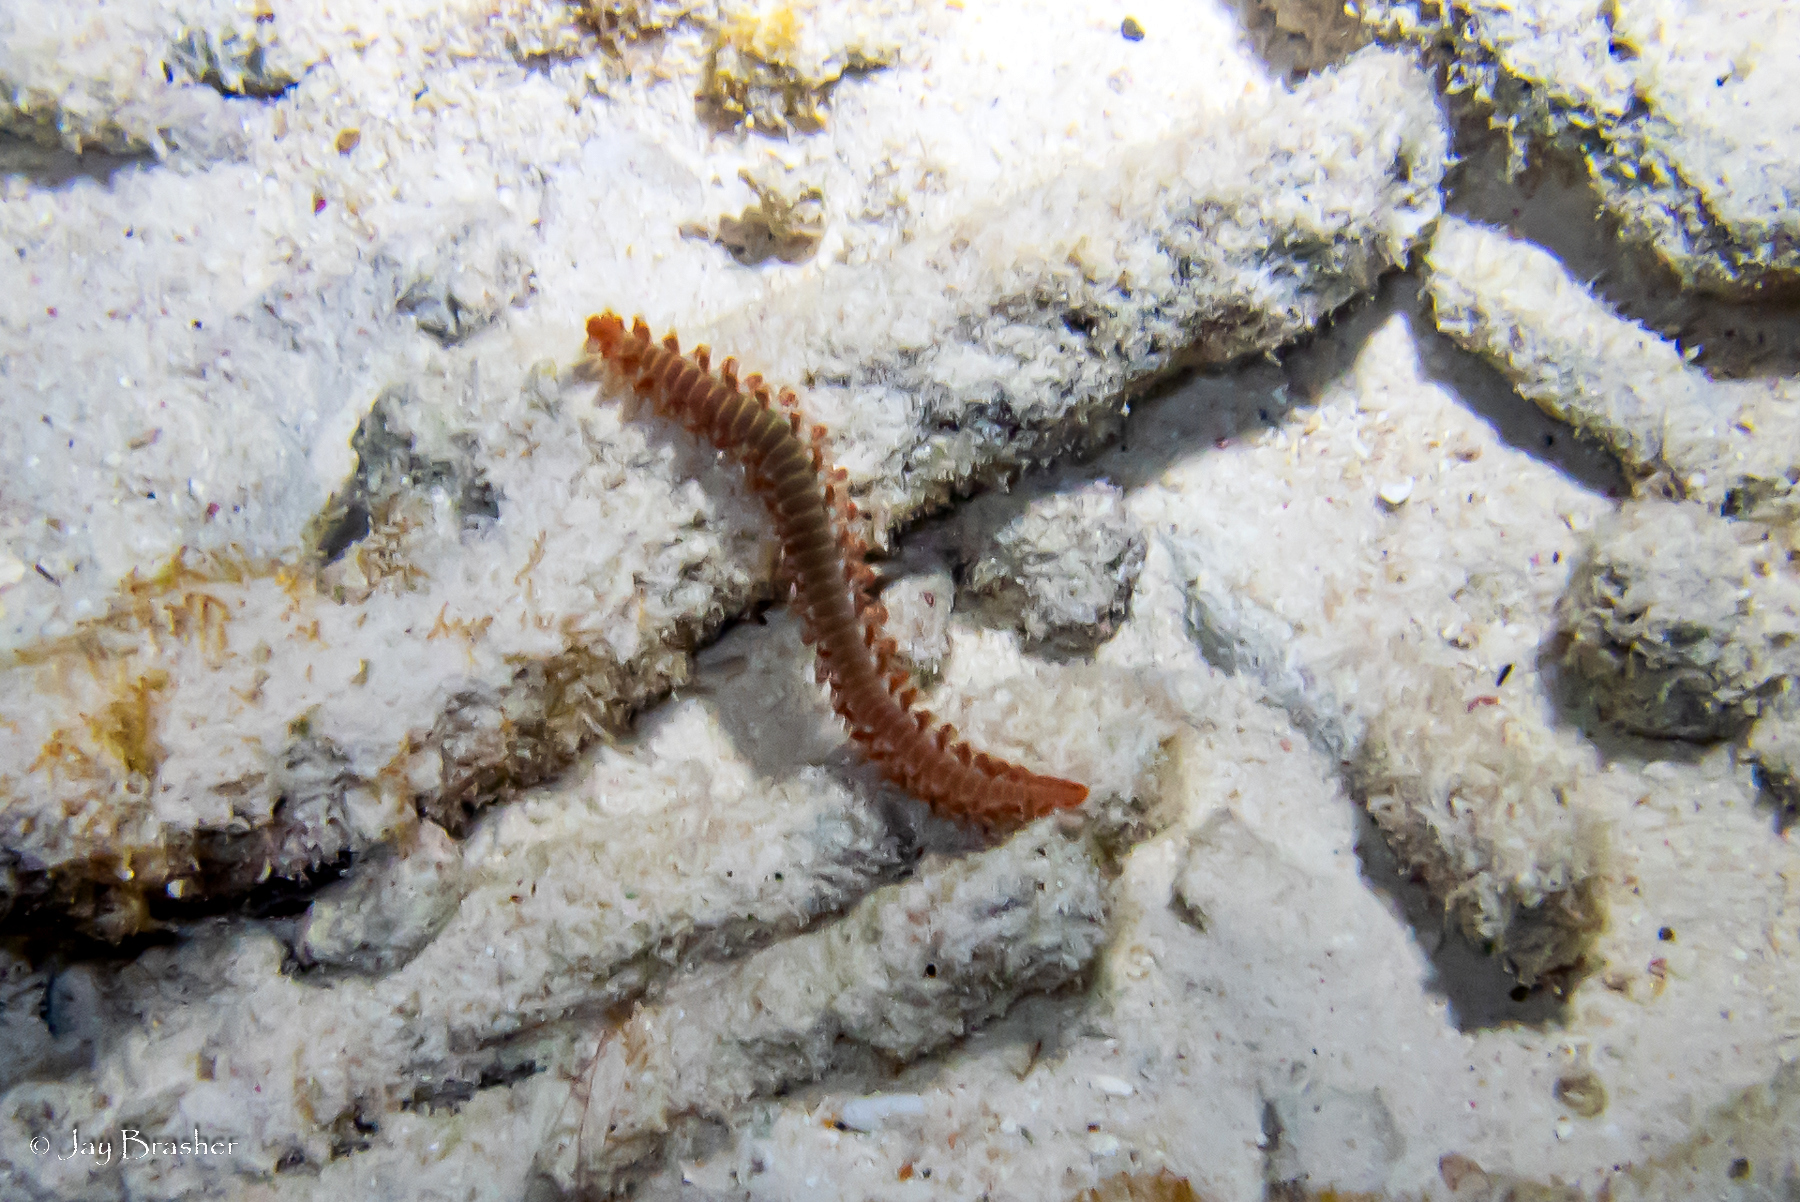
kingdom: Animalia
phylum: Annelida
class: Polychaeta
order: Amphinomida
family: Amphinomidae
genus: Hermodice
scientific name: Hermodice carunculata
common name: Bearded fireworm
